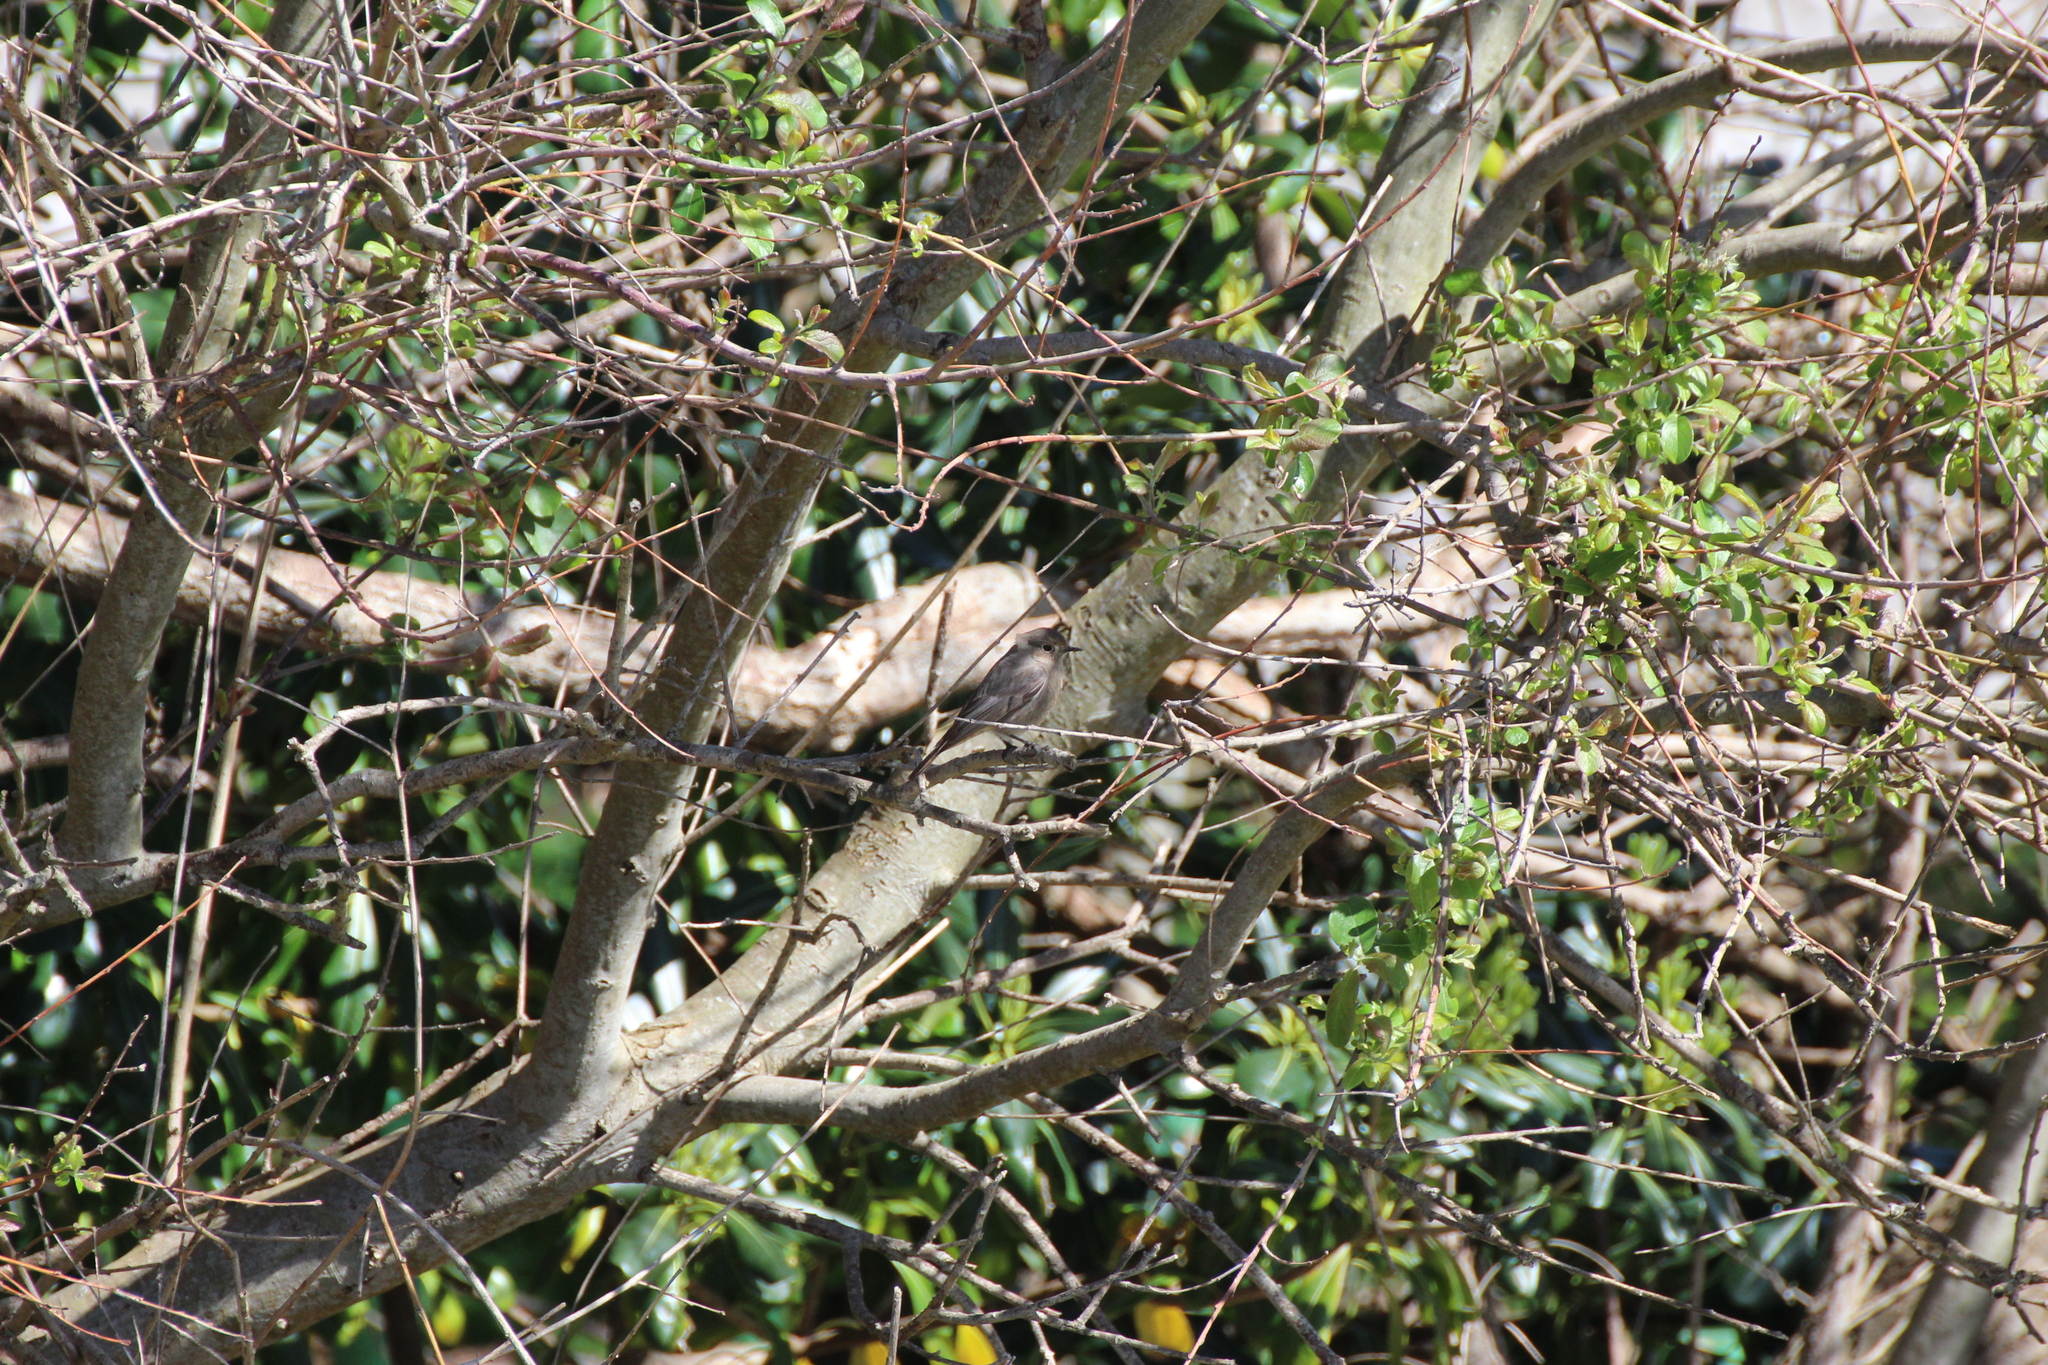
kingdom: Animalia
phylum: Chordata
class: Aves
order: Passeriformes
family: Muscicapidae
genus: Phoenicurus
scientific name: Phoenicurus ochruros
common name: Black redstart
